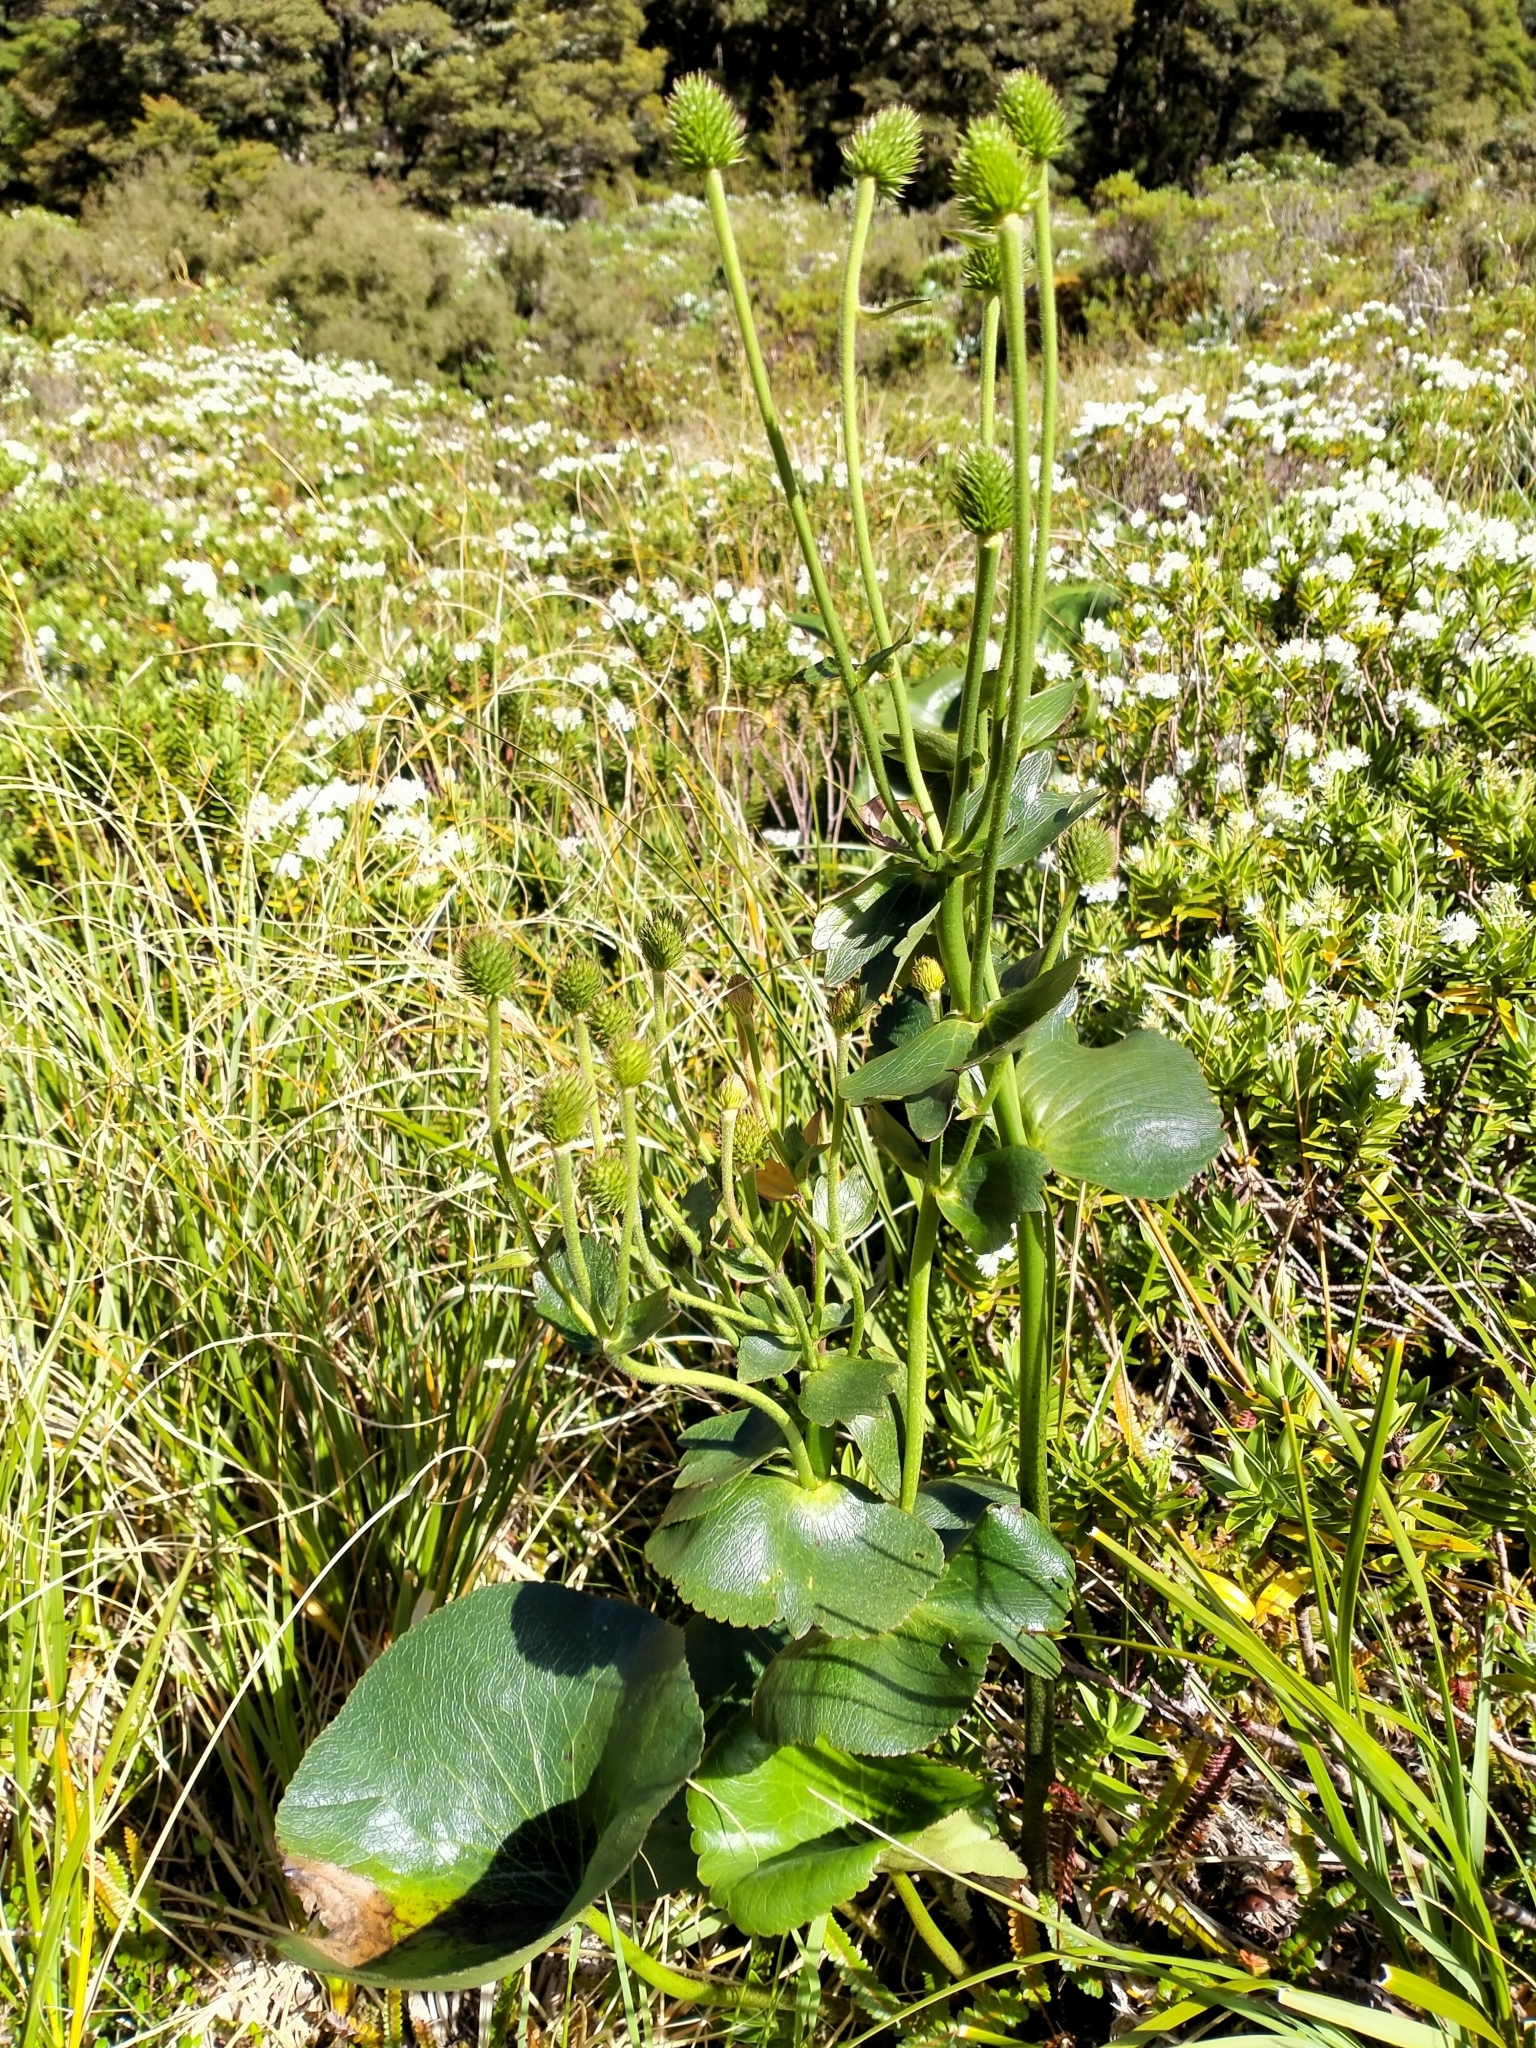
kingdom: Plantae
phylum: Tracheophyta
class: Magnoliopsida
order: Ranunculales
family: Ranunculaceae
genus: Ranunculus
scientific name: Ranunculus lyallii
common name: Mountain-lily
